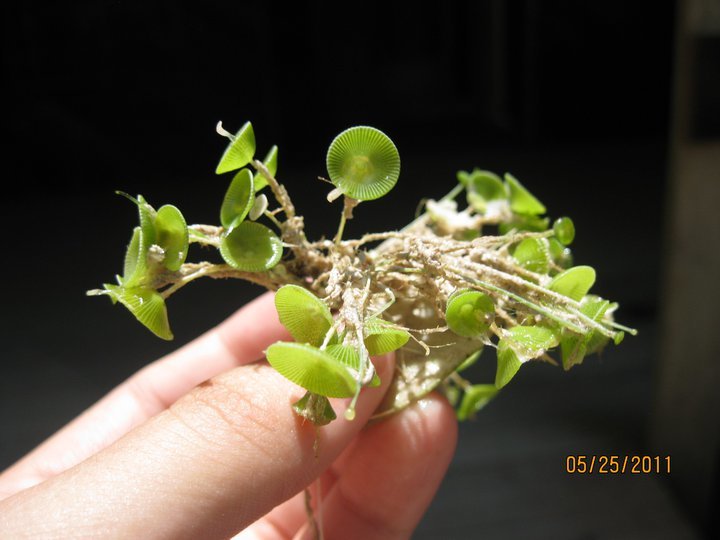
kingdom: Plantae
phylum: Chlorophyta
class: Ulvophyceae
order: Dasycladales
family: Polyphysaceae
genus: Acetabularia
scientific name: Acetabularia crenulata
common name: White mermaid's wine glass
